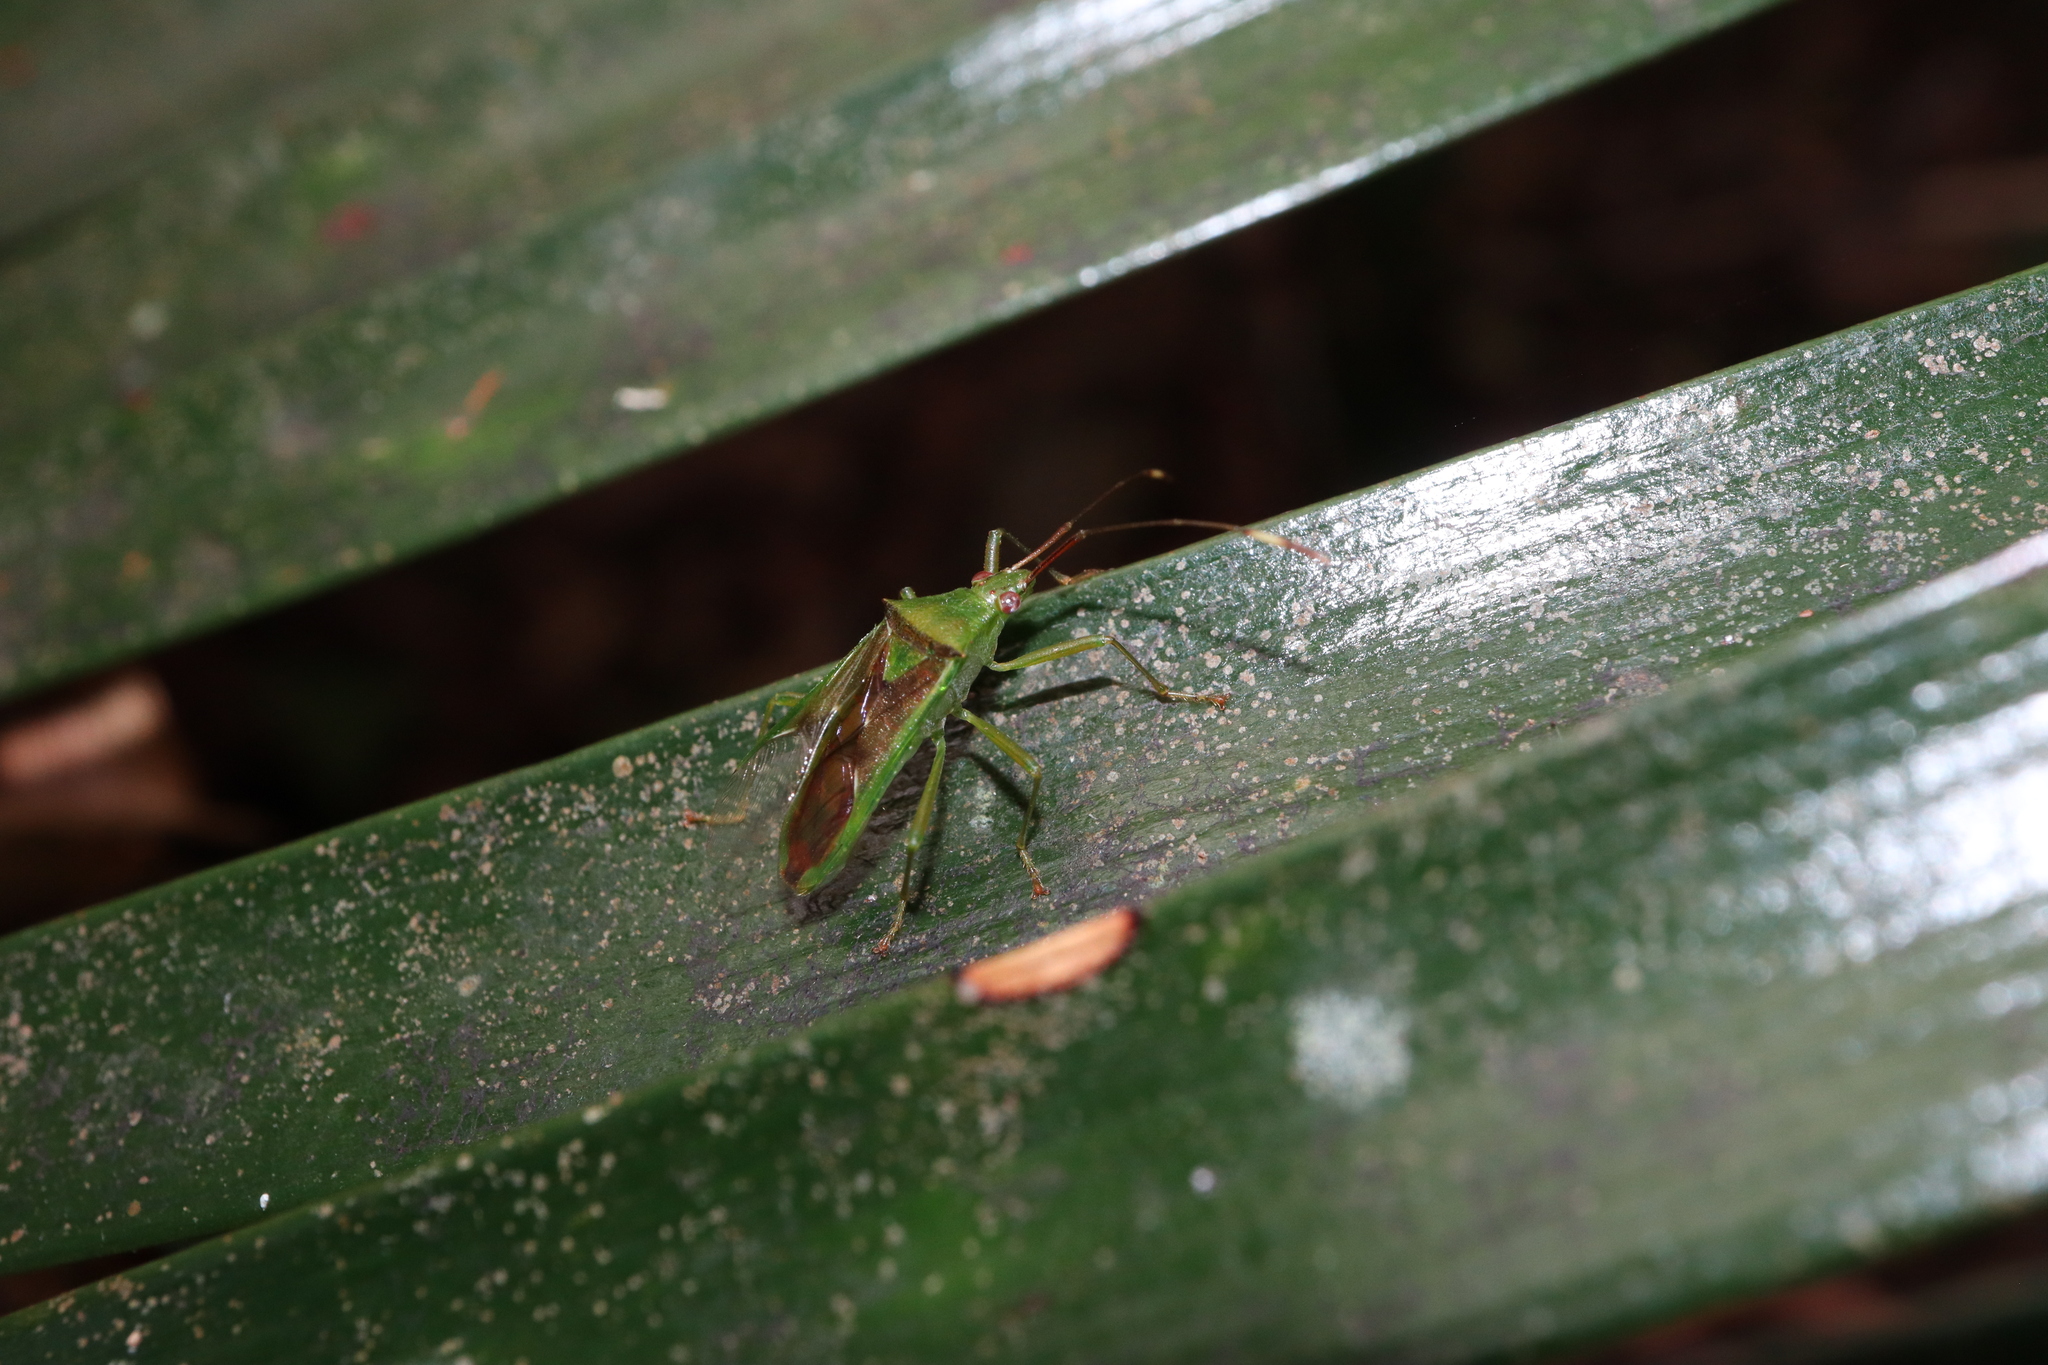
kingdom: Animalia
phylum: Arthropoda
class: Insecta
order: Hemiptera
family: Coreidae
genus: Amblypelta
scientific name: Amblypelta nitida
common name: Fruitspotting bug
